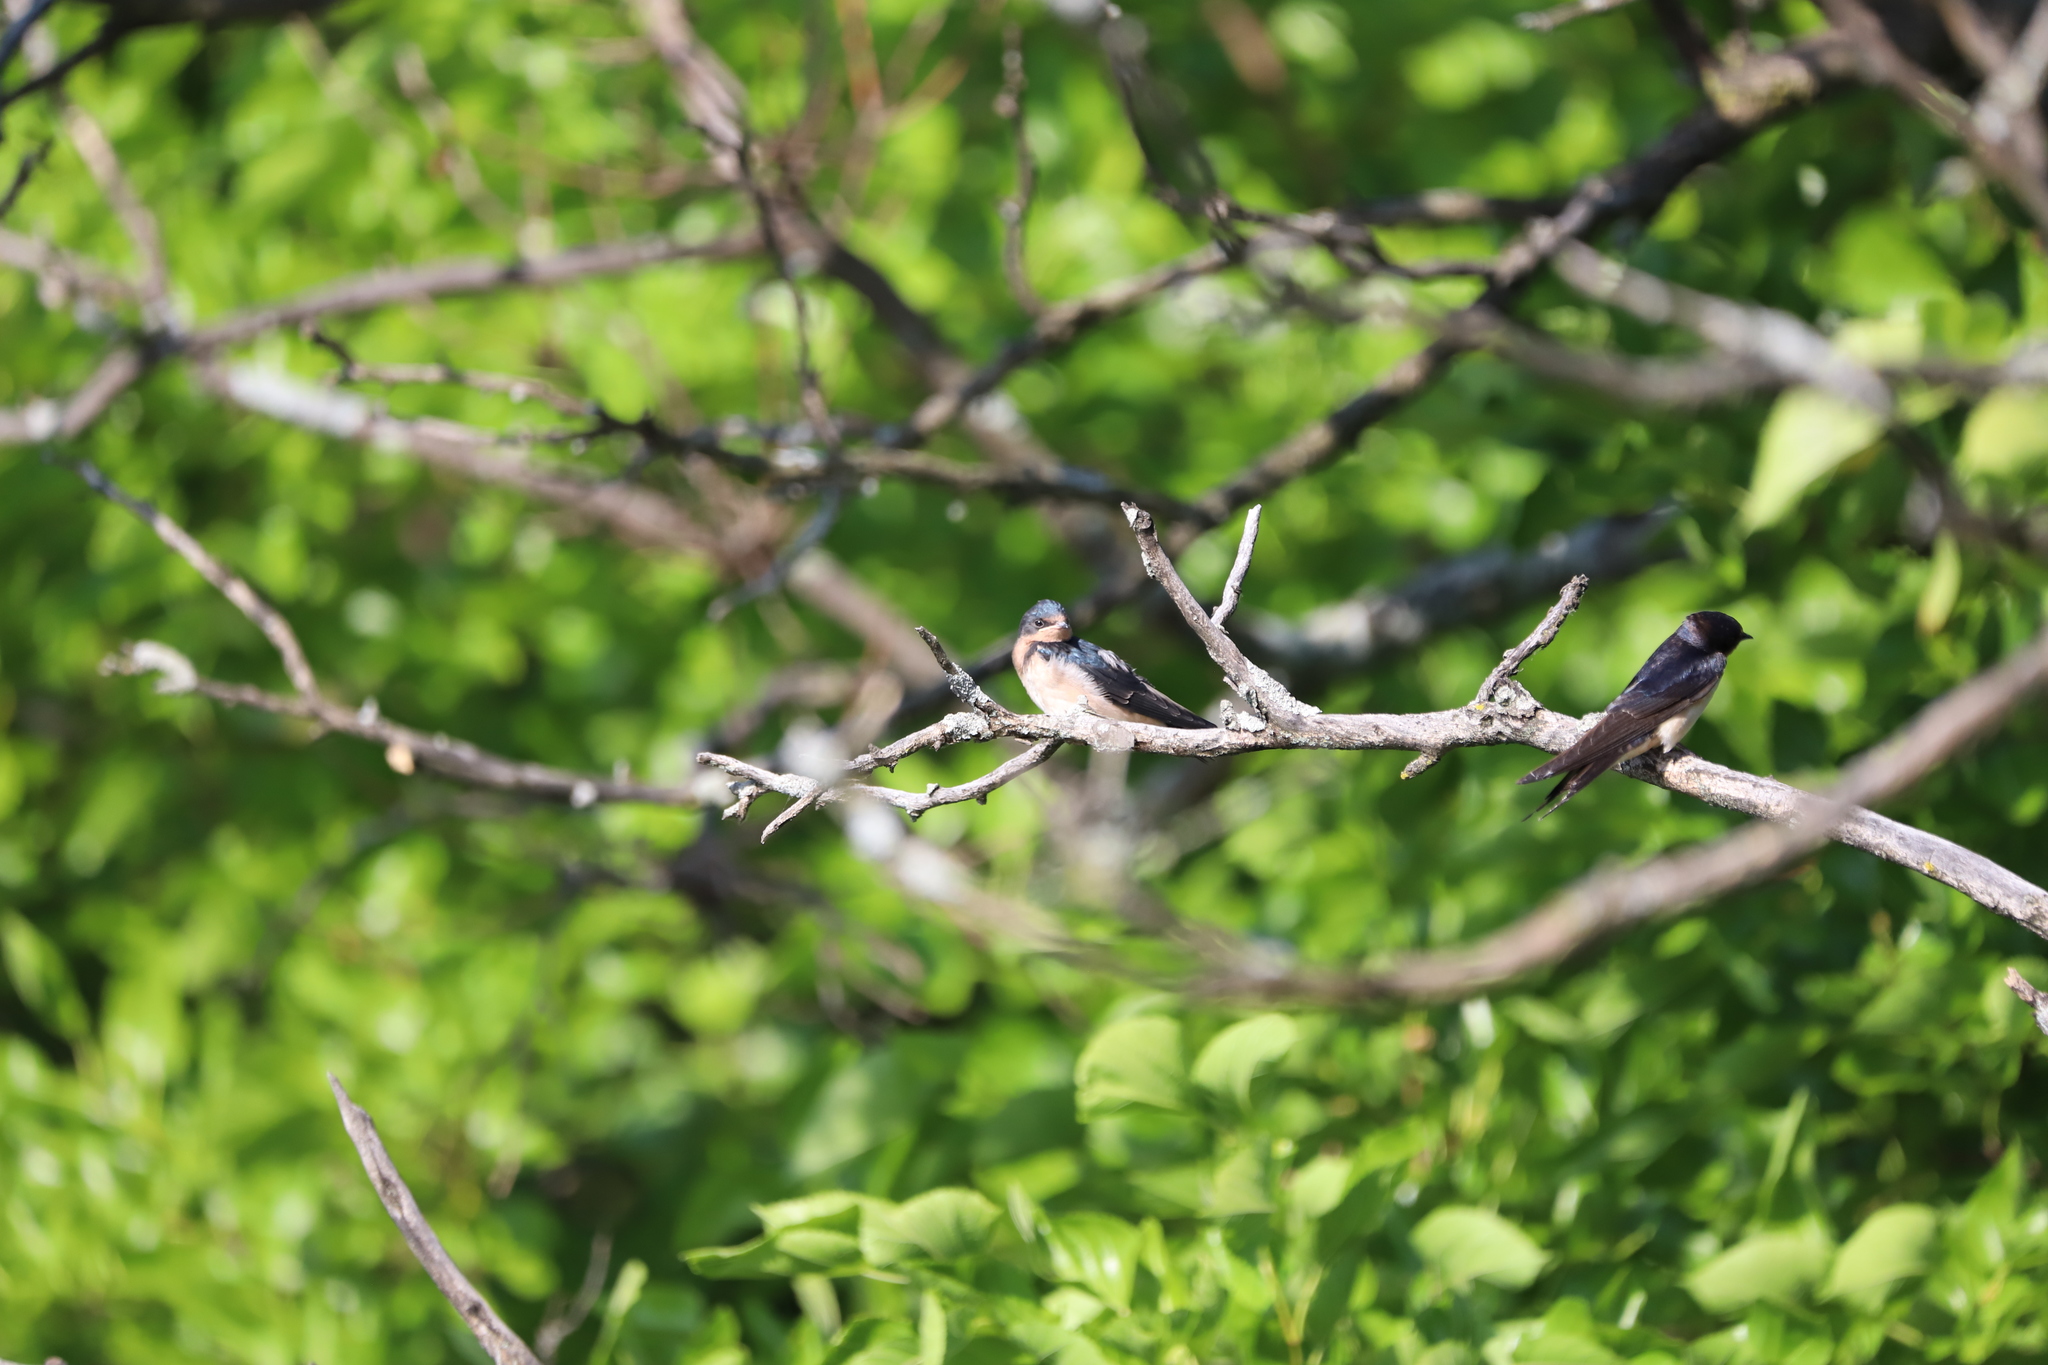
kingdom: Animalia
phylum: Chordata
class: Aves
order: Passeriformes
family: Hirundinidae
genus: Hirundo
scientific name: Hirundo rustica
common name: Barn swallow
